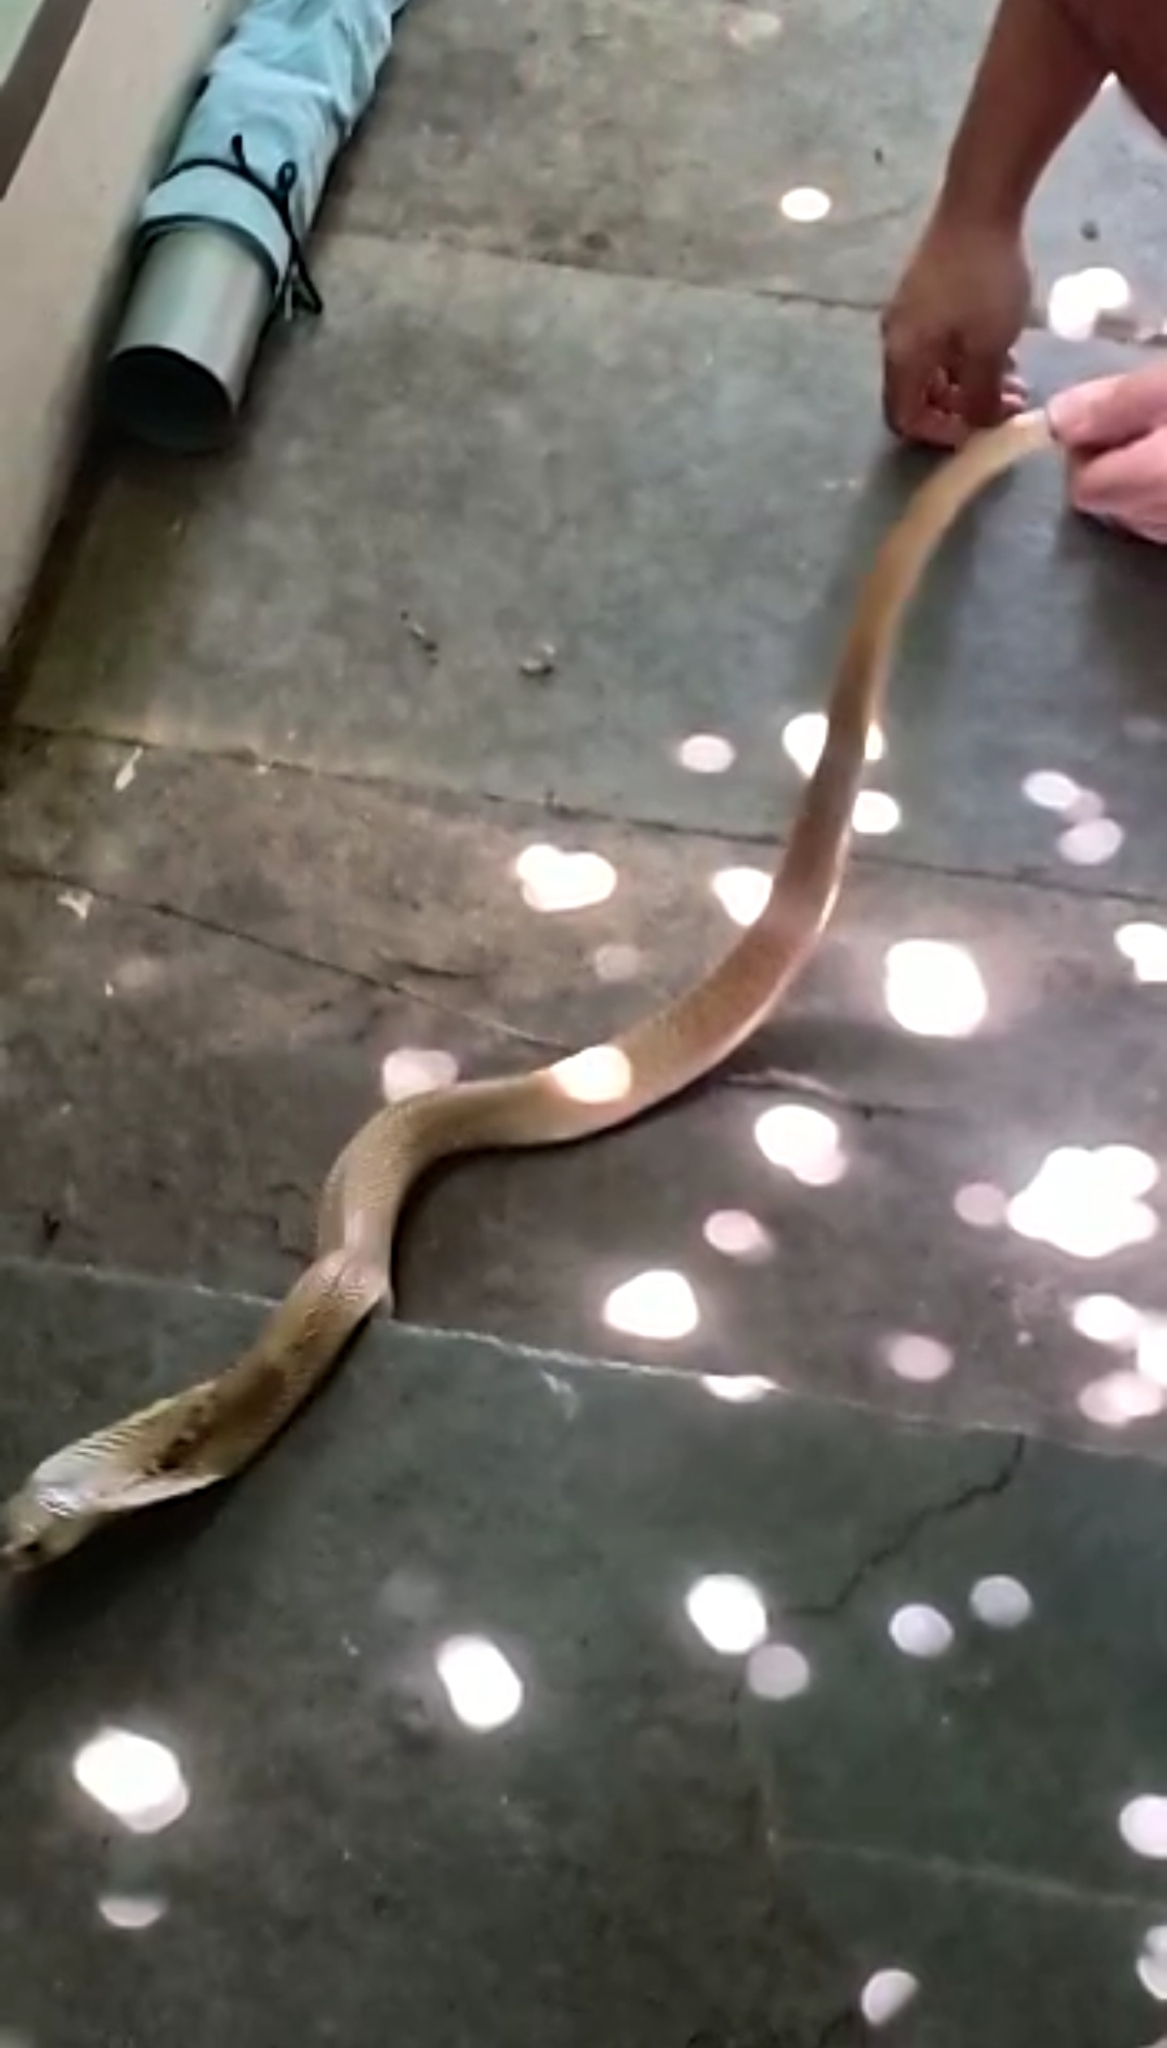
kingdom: Animalia
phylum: Chordata
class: Squamata
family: Elapidae
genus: Naja
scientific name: Naja naja
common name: Indian cobra
